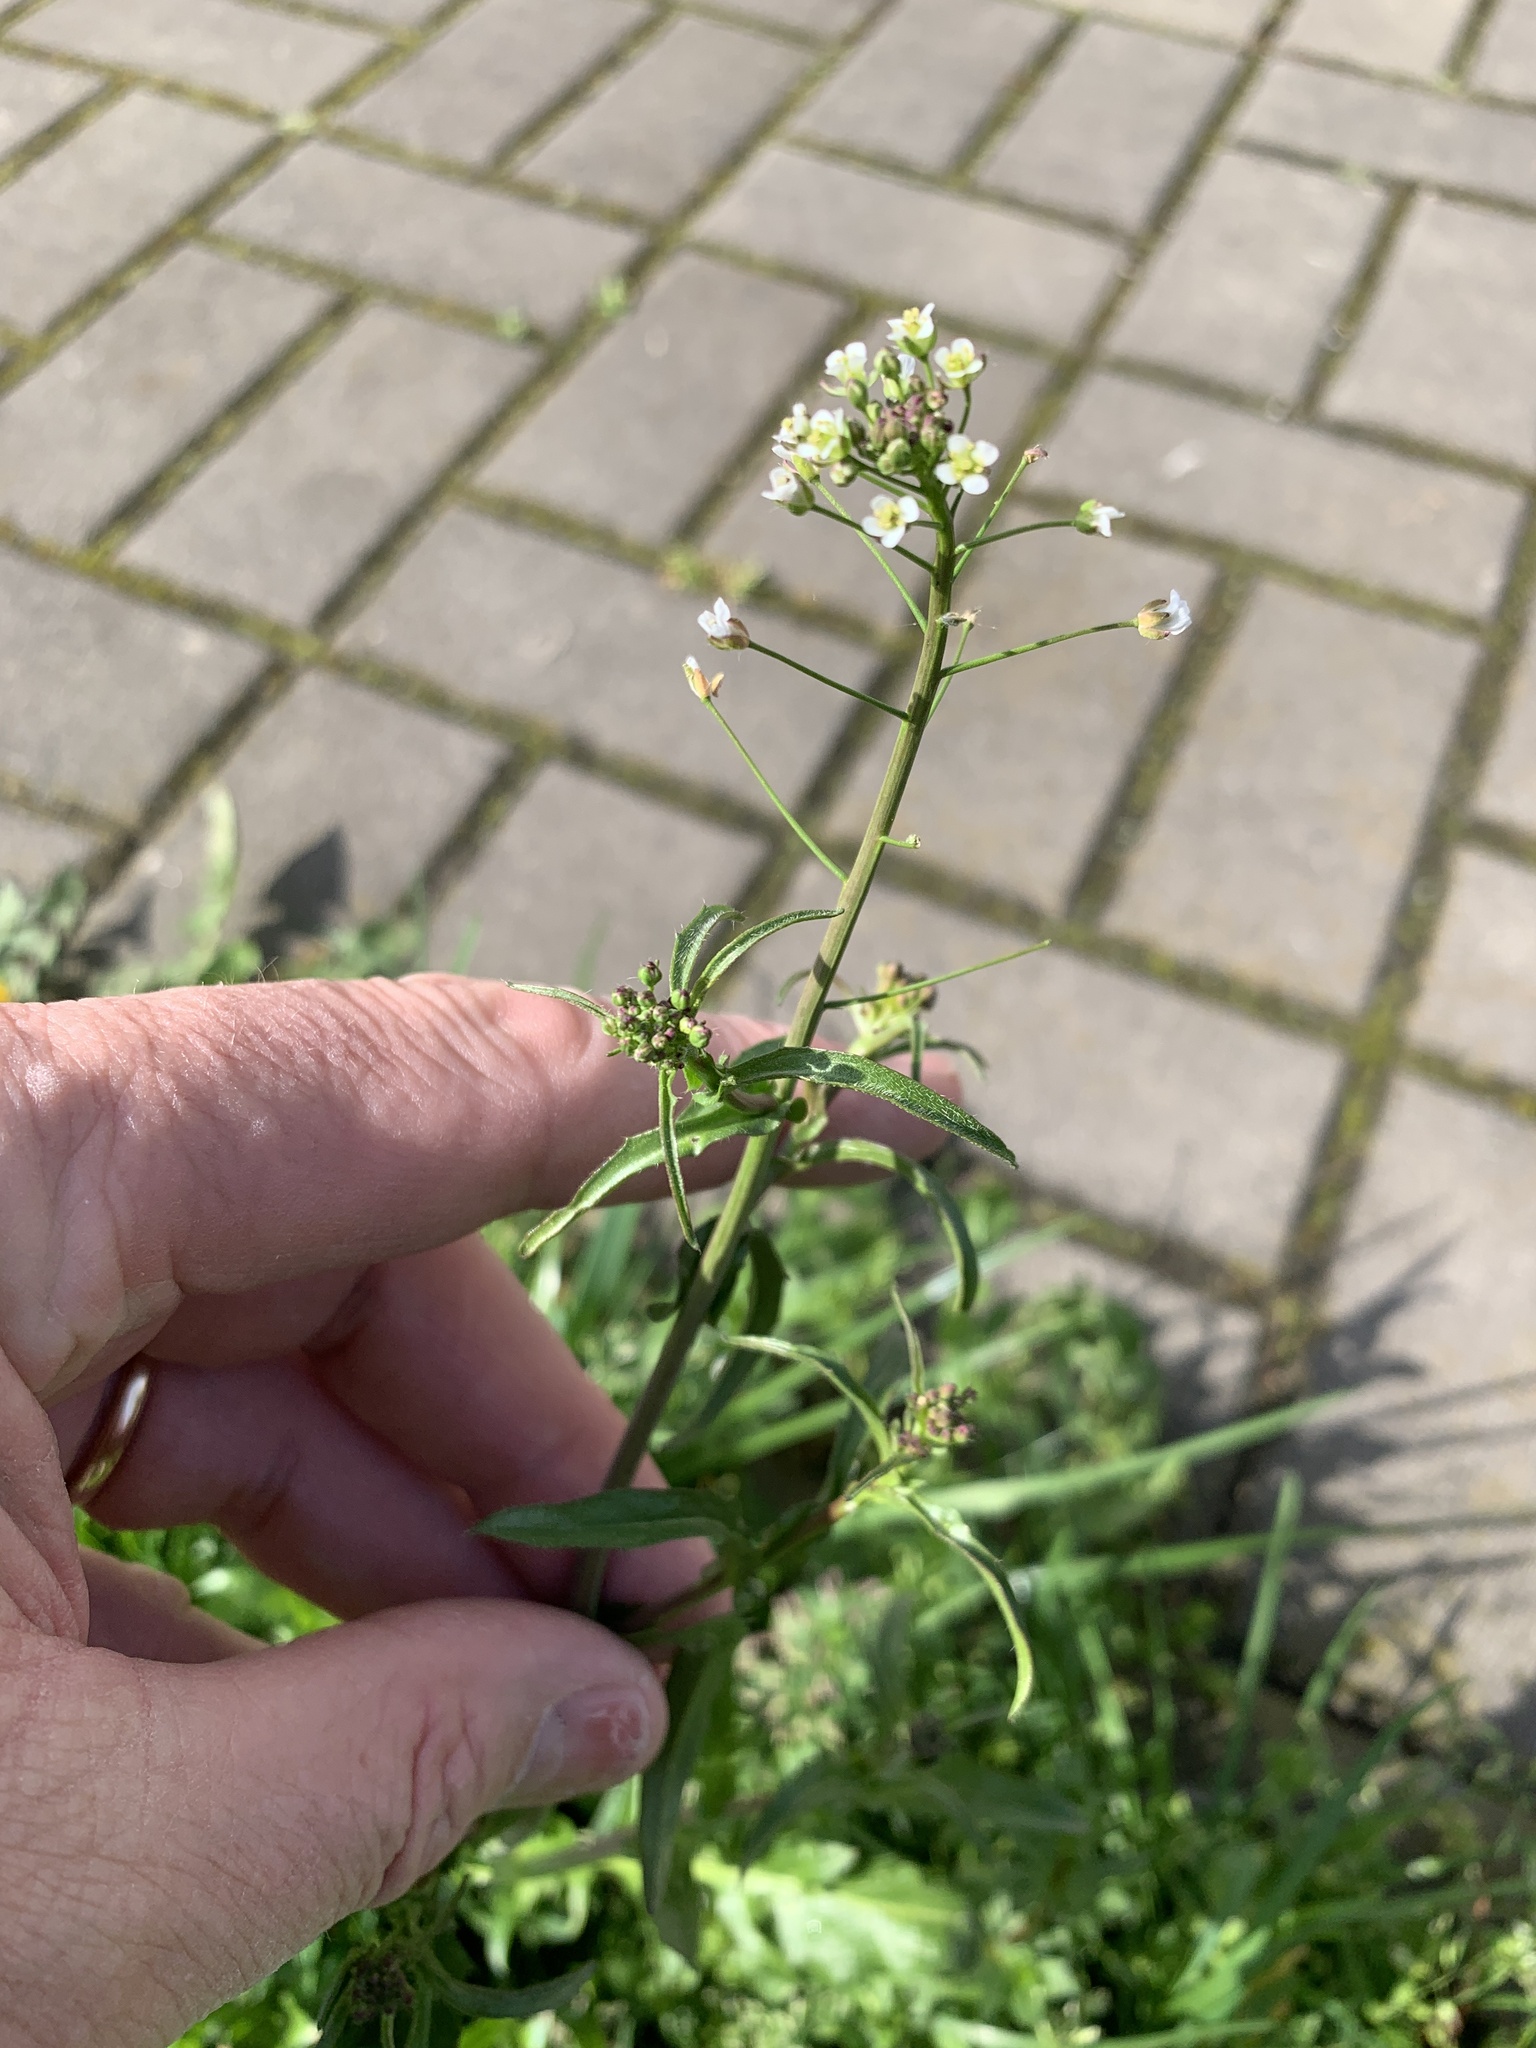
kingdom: Plantae
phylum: Tracheophyta
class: Magnoliopsida
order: Brassicales
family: Brassicaceae
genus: Capsella
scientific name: Capsella bursa-pastoris
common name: Shepherd's purse
